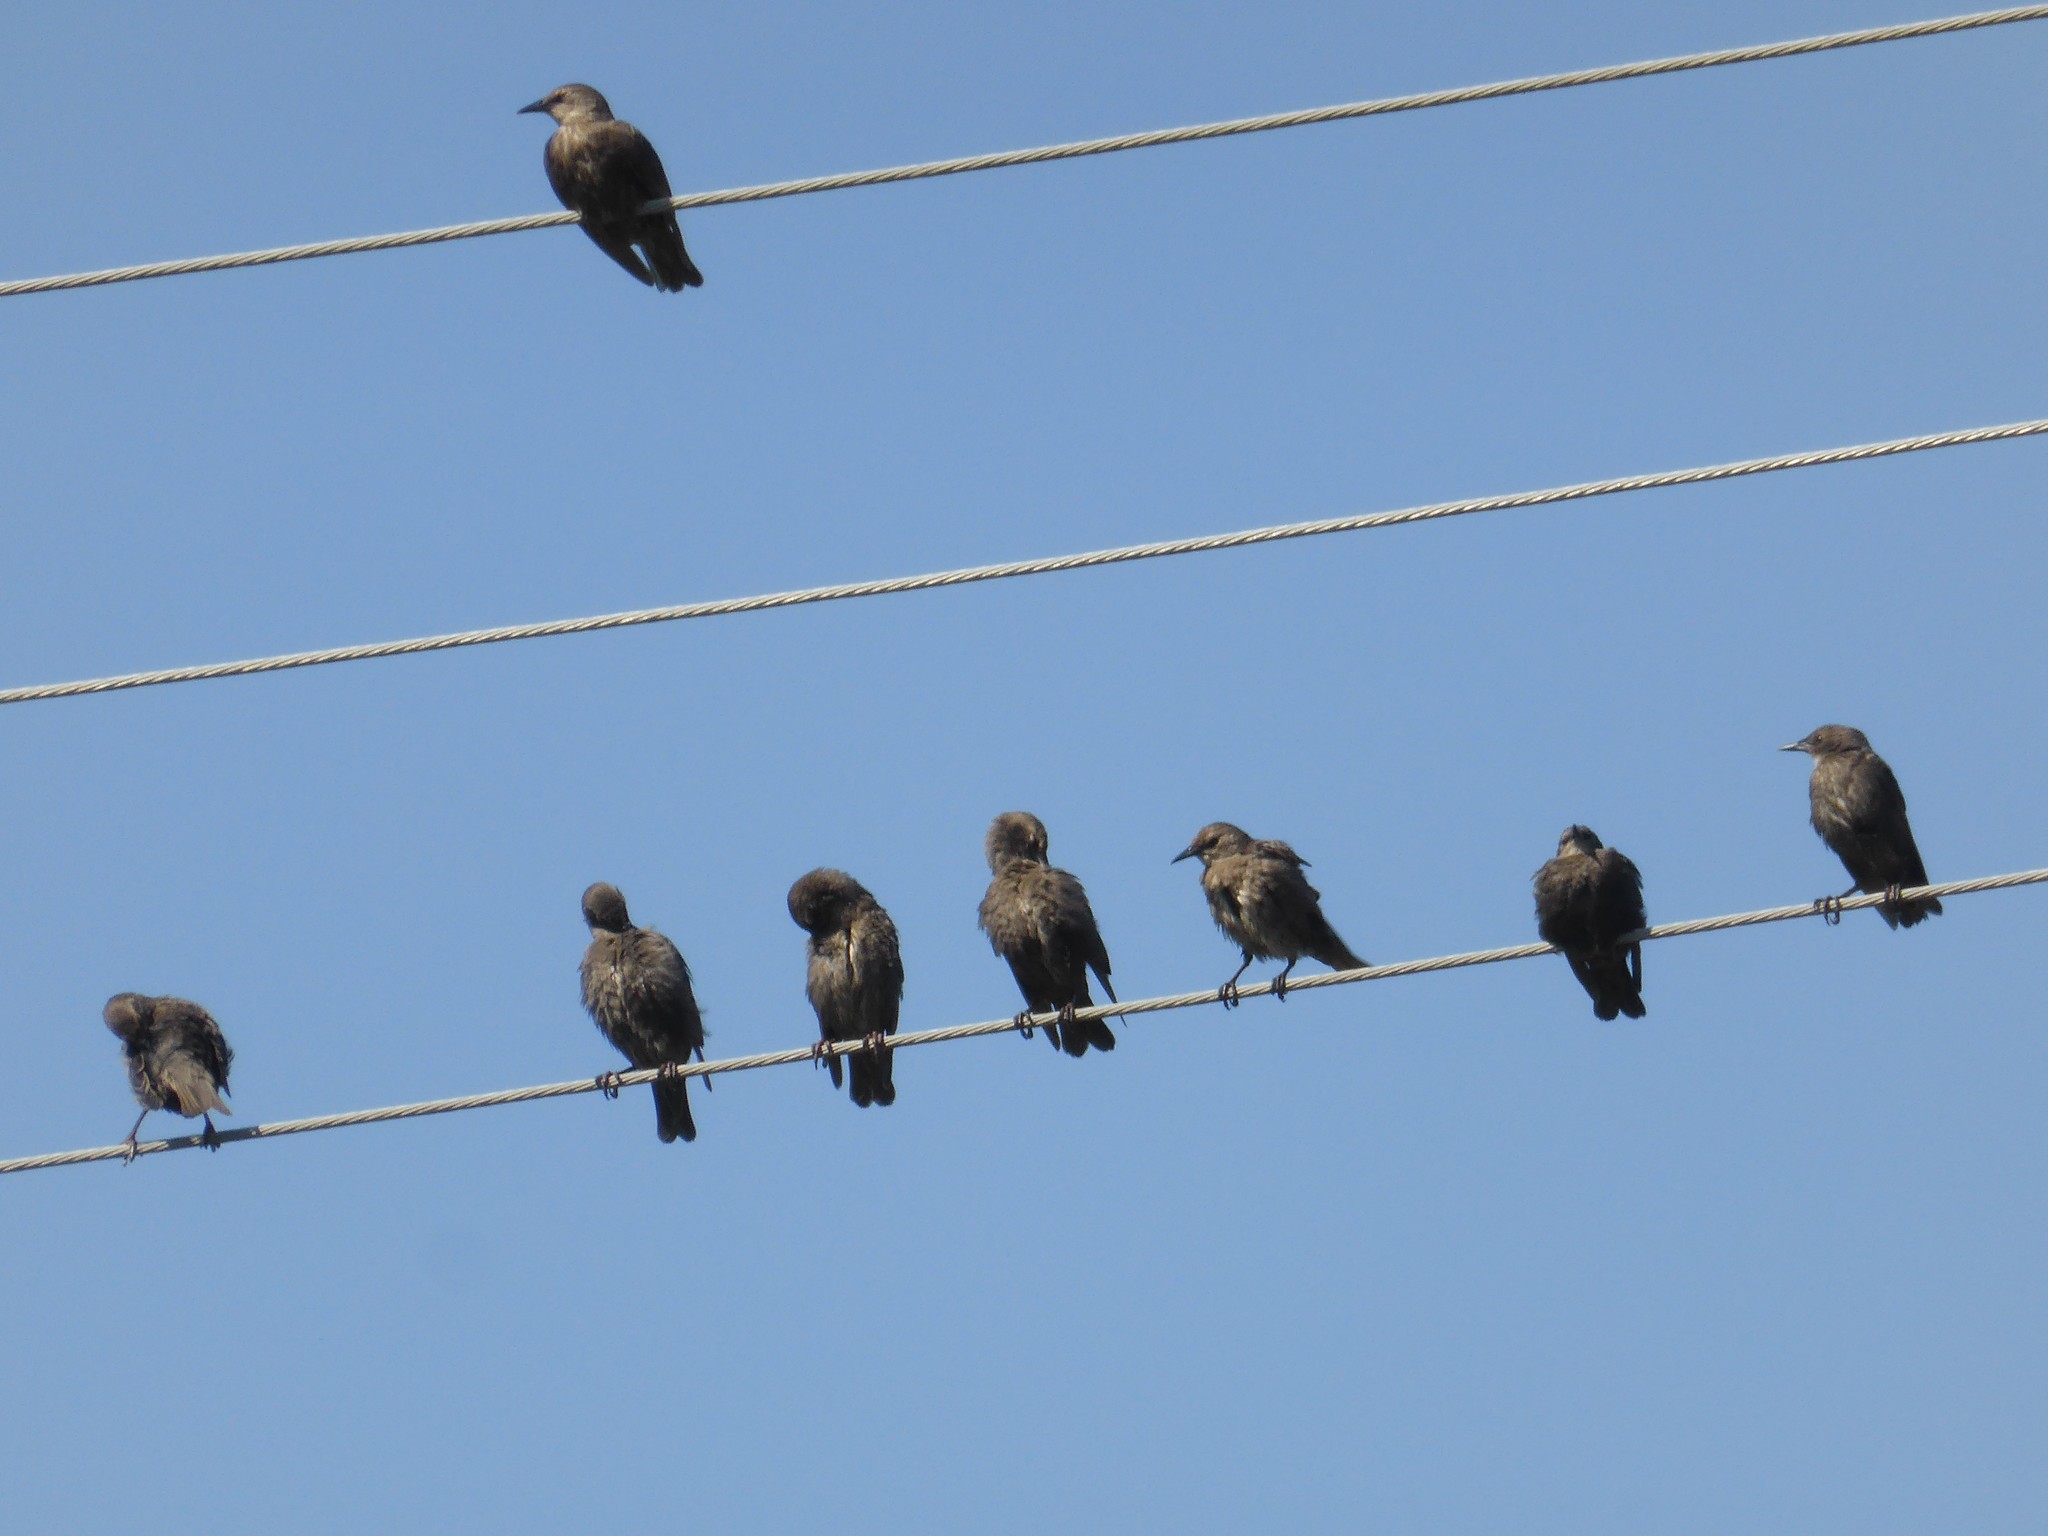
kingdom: Animalia
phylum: Chordata
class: Aves
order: Passeriformes
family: Sturnidae
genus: Sturnus
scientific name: Sturnus unicolor
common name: Spotless starling
